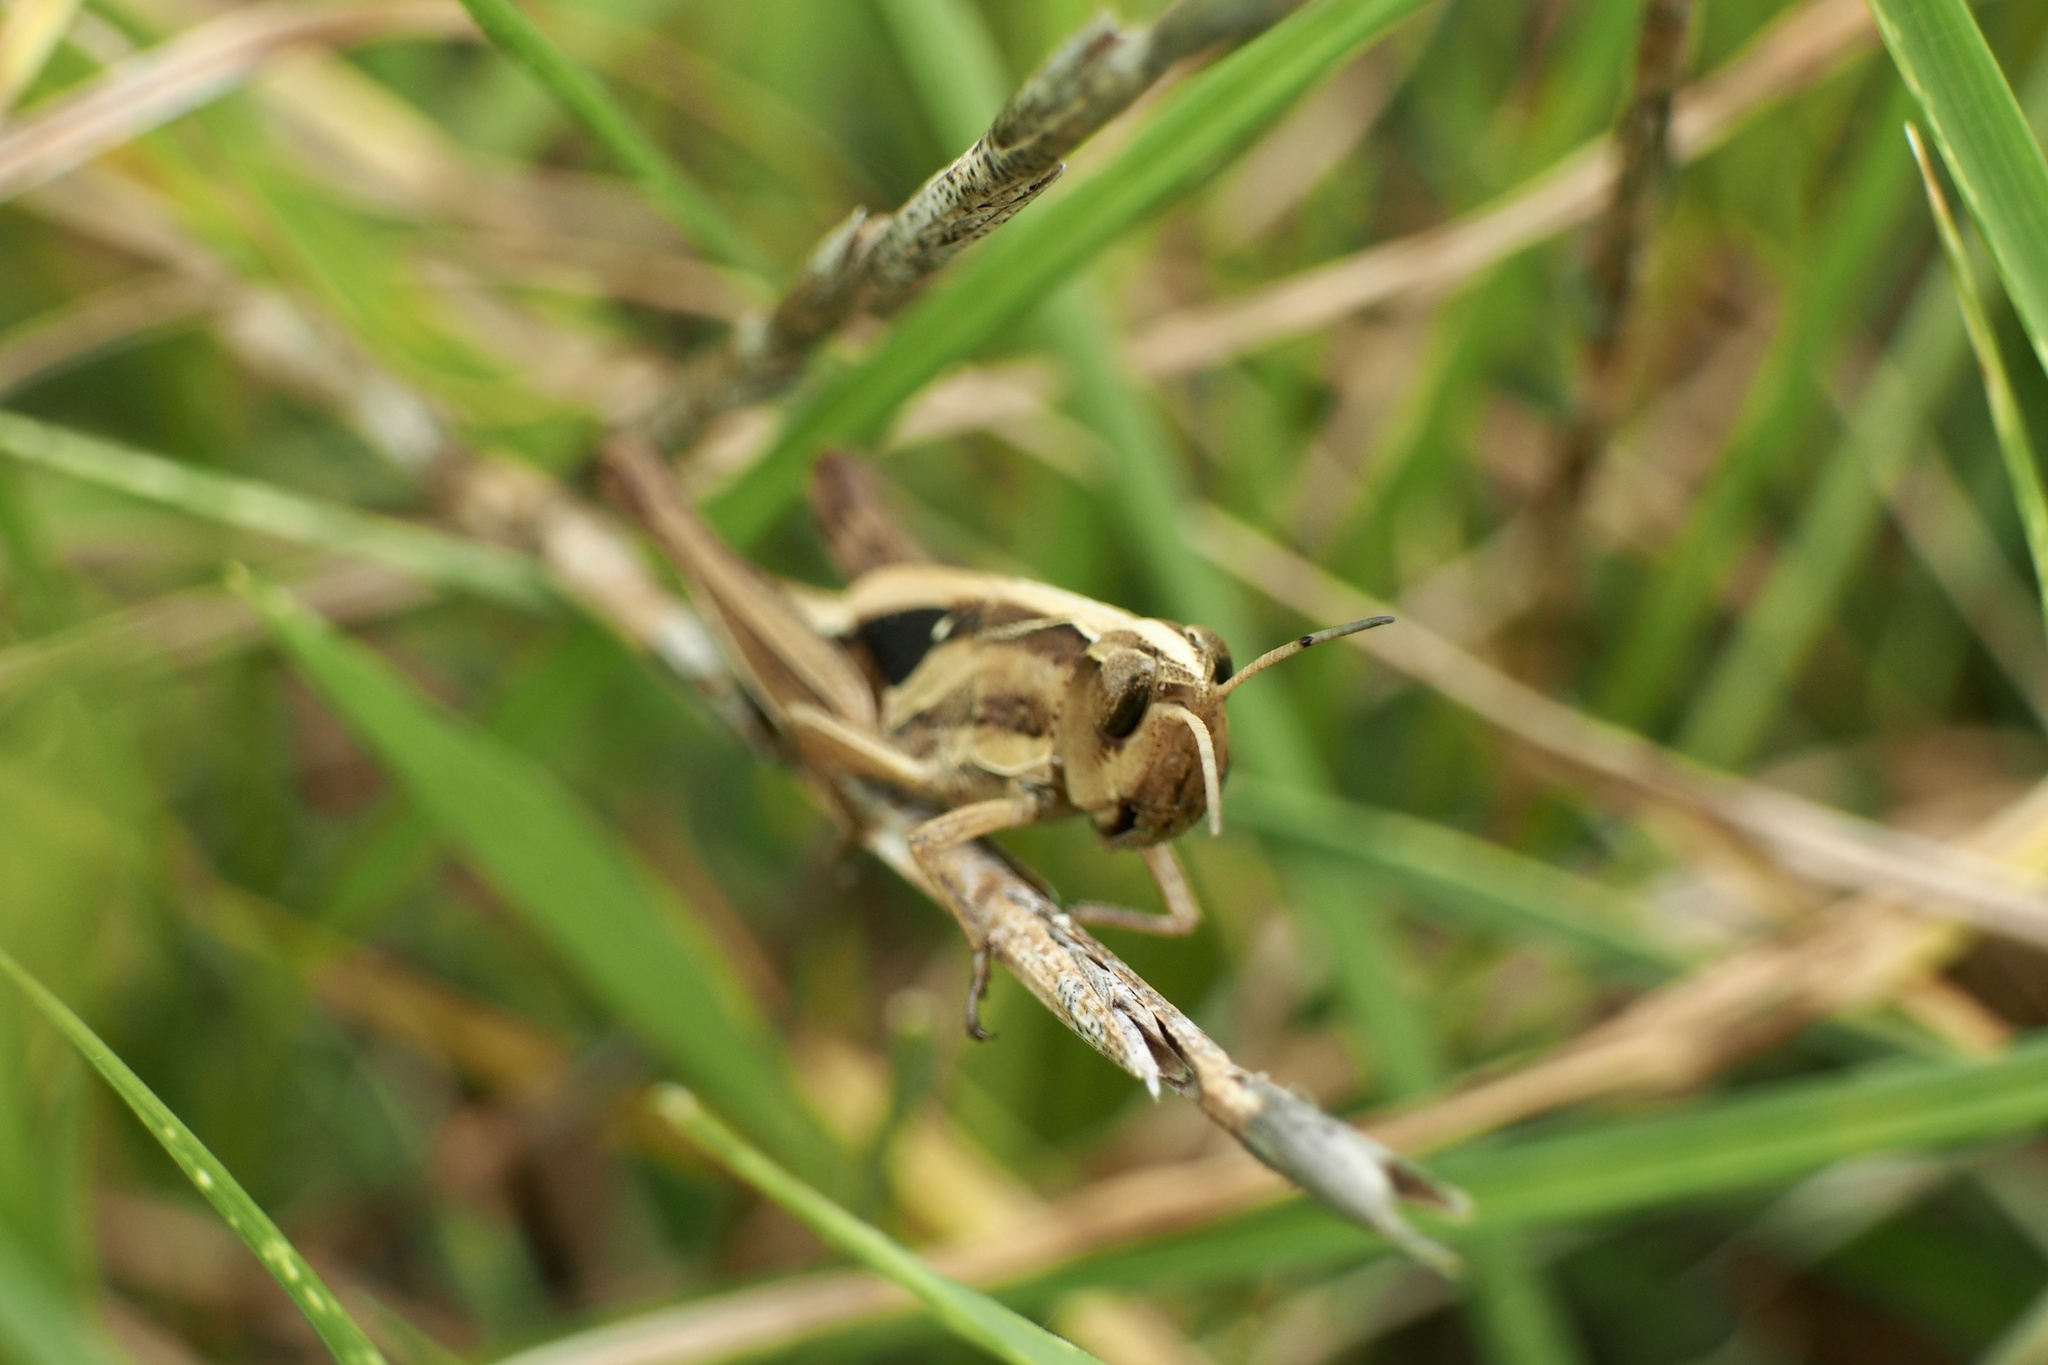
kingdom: Animalia
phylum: Arthropoda
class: Insecta
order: Orthoptera
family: Acrididae
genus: Aiolopus
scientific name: Aiolopus thalassinus
